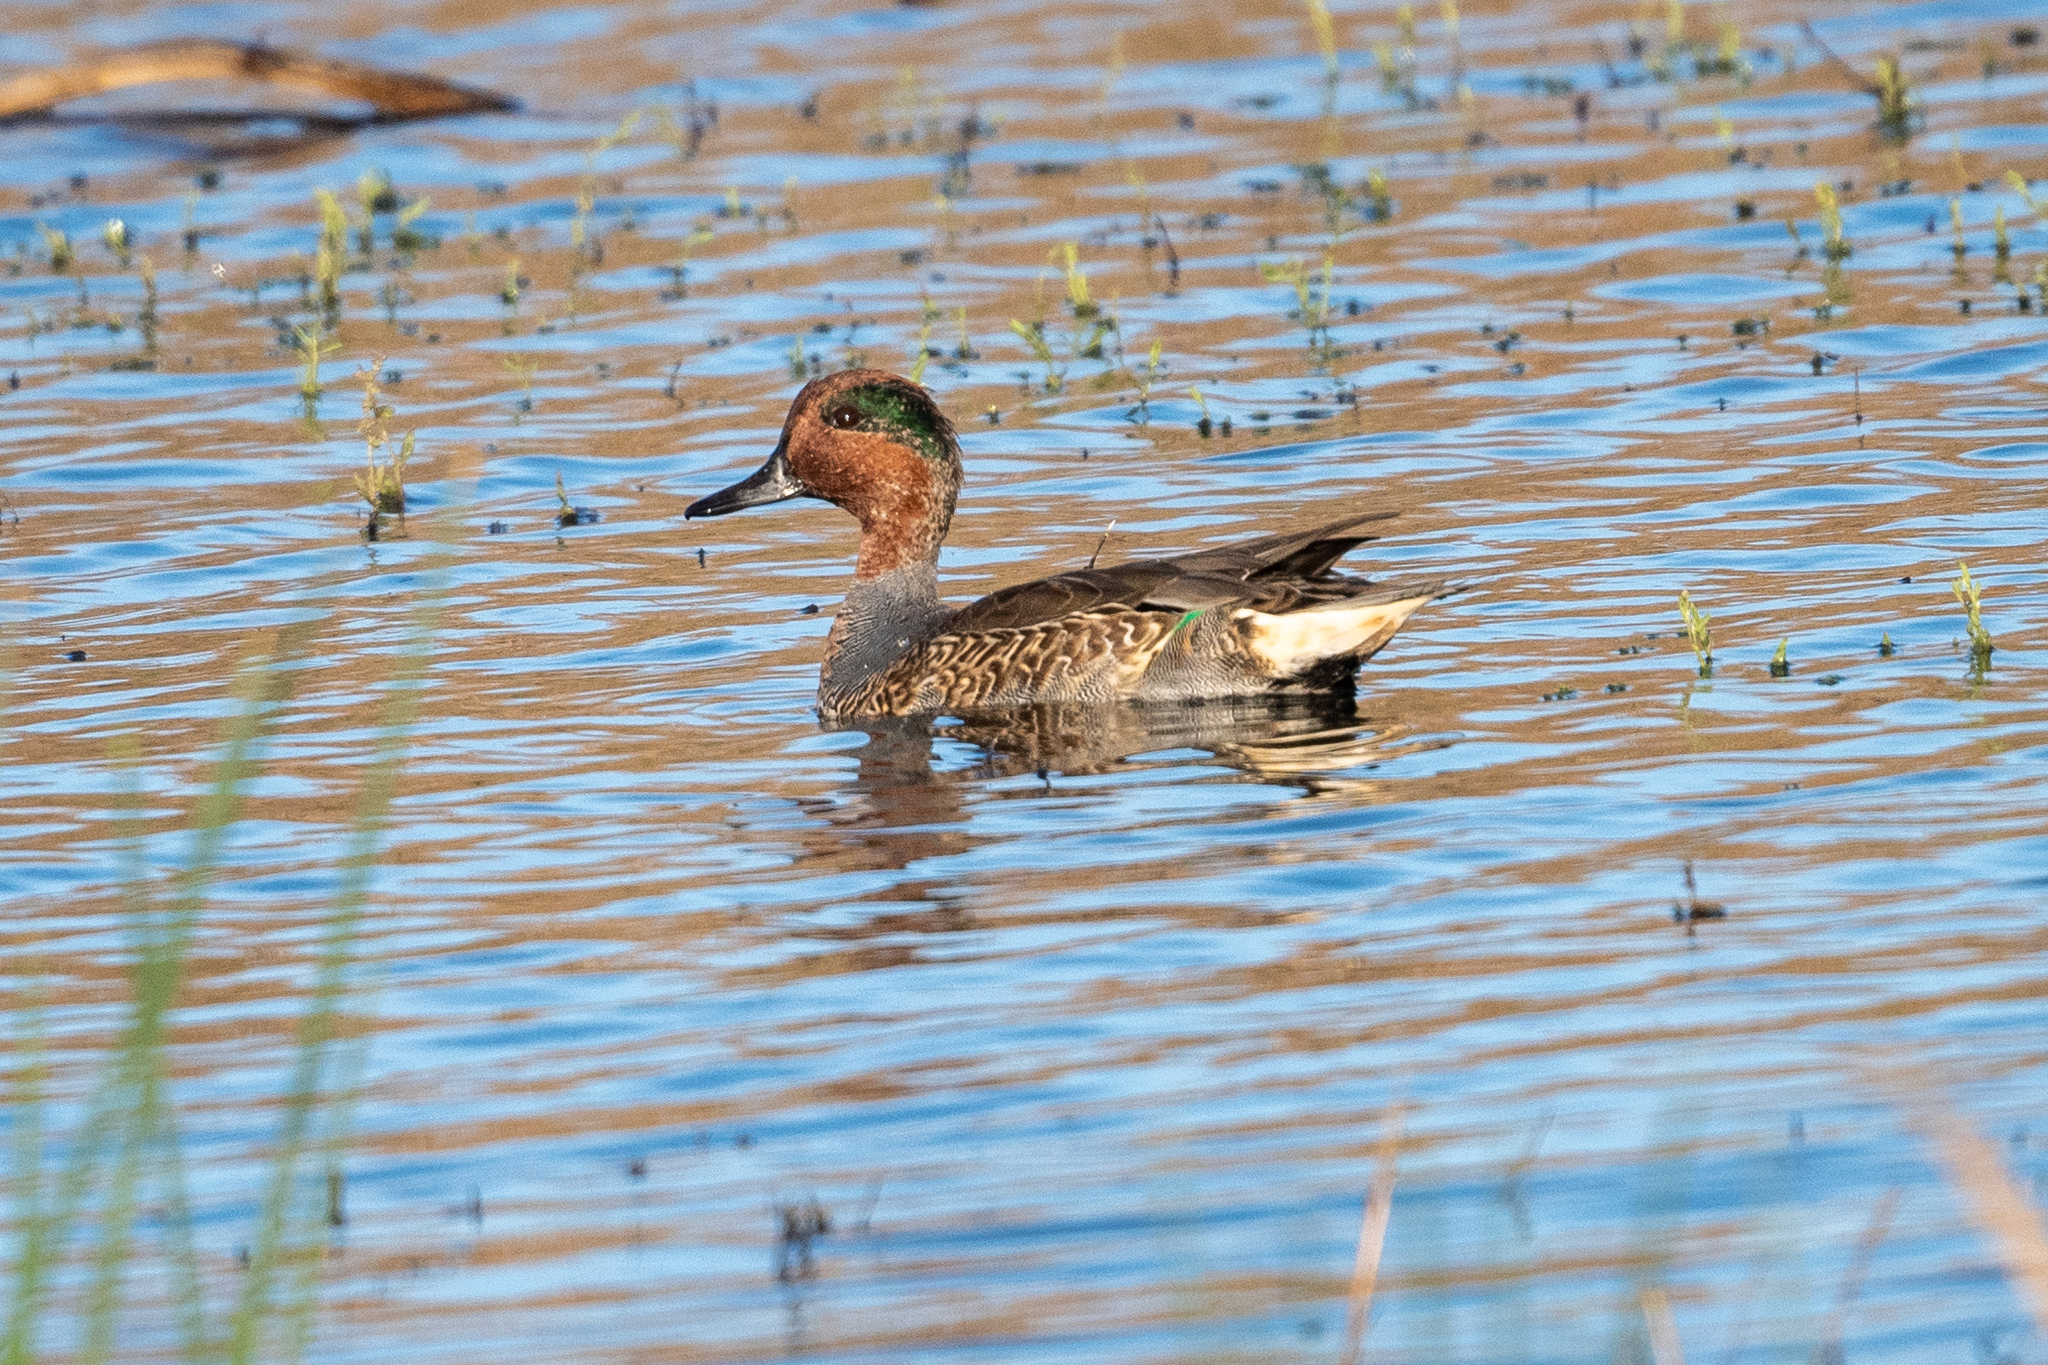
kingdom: Animalia
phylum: Chordata
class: Aves
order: Anseriformes
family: Anatidae
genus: Anas
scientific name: Anas crecca
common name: Eurasian teal
